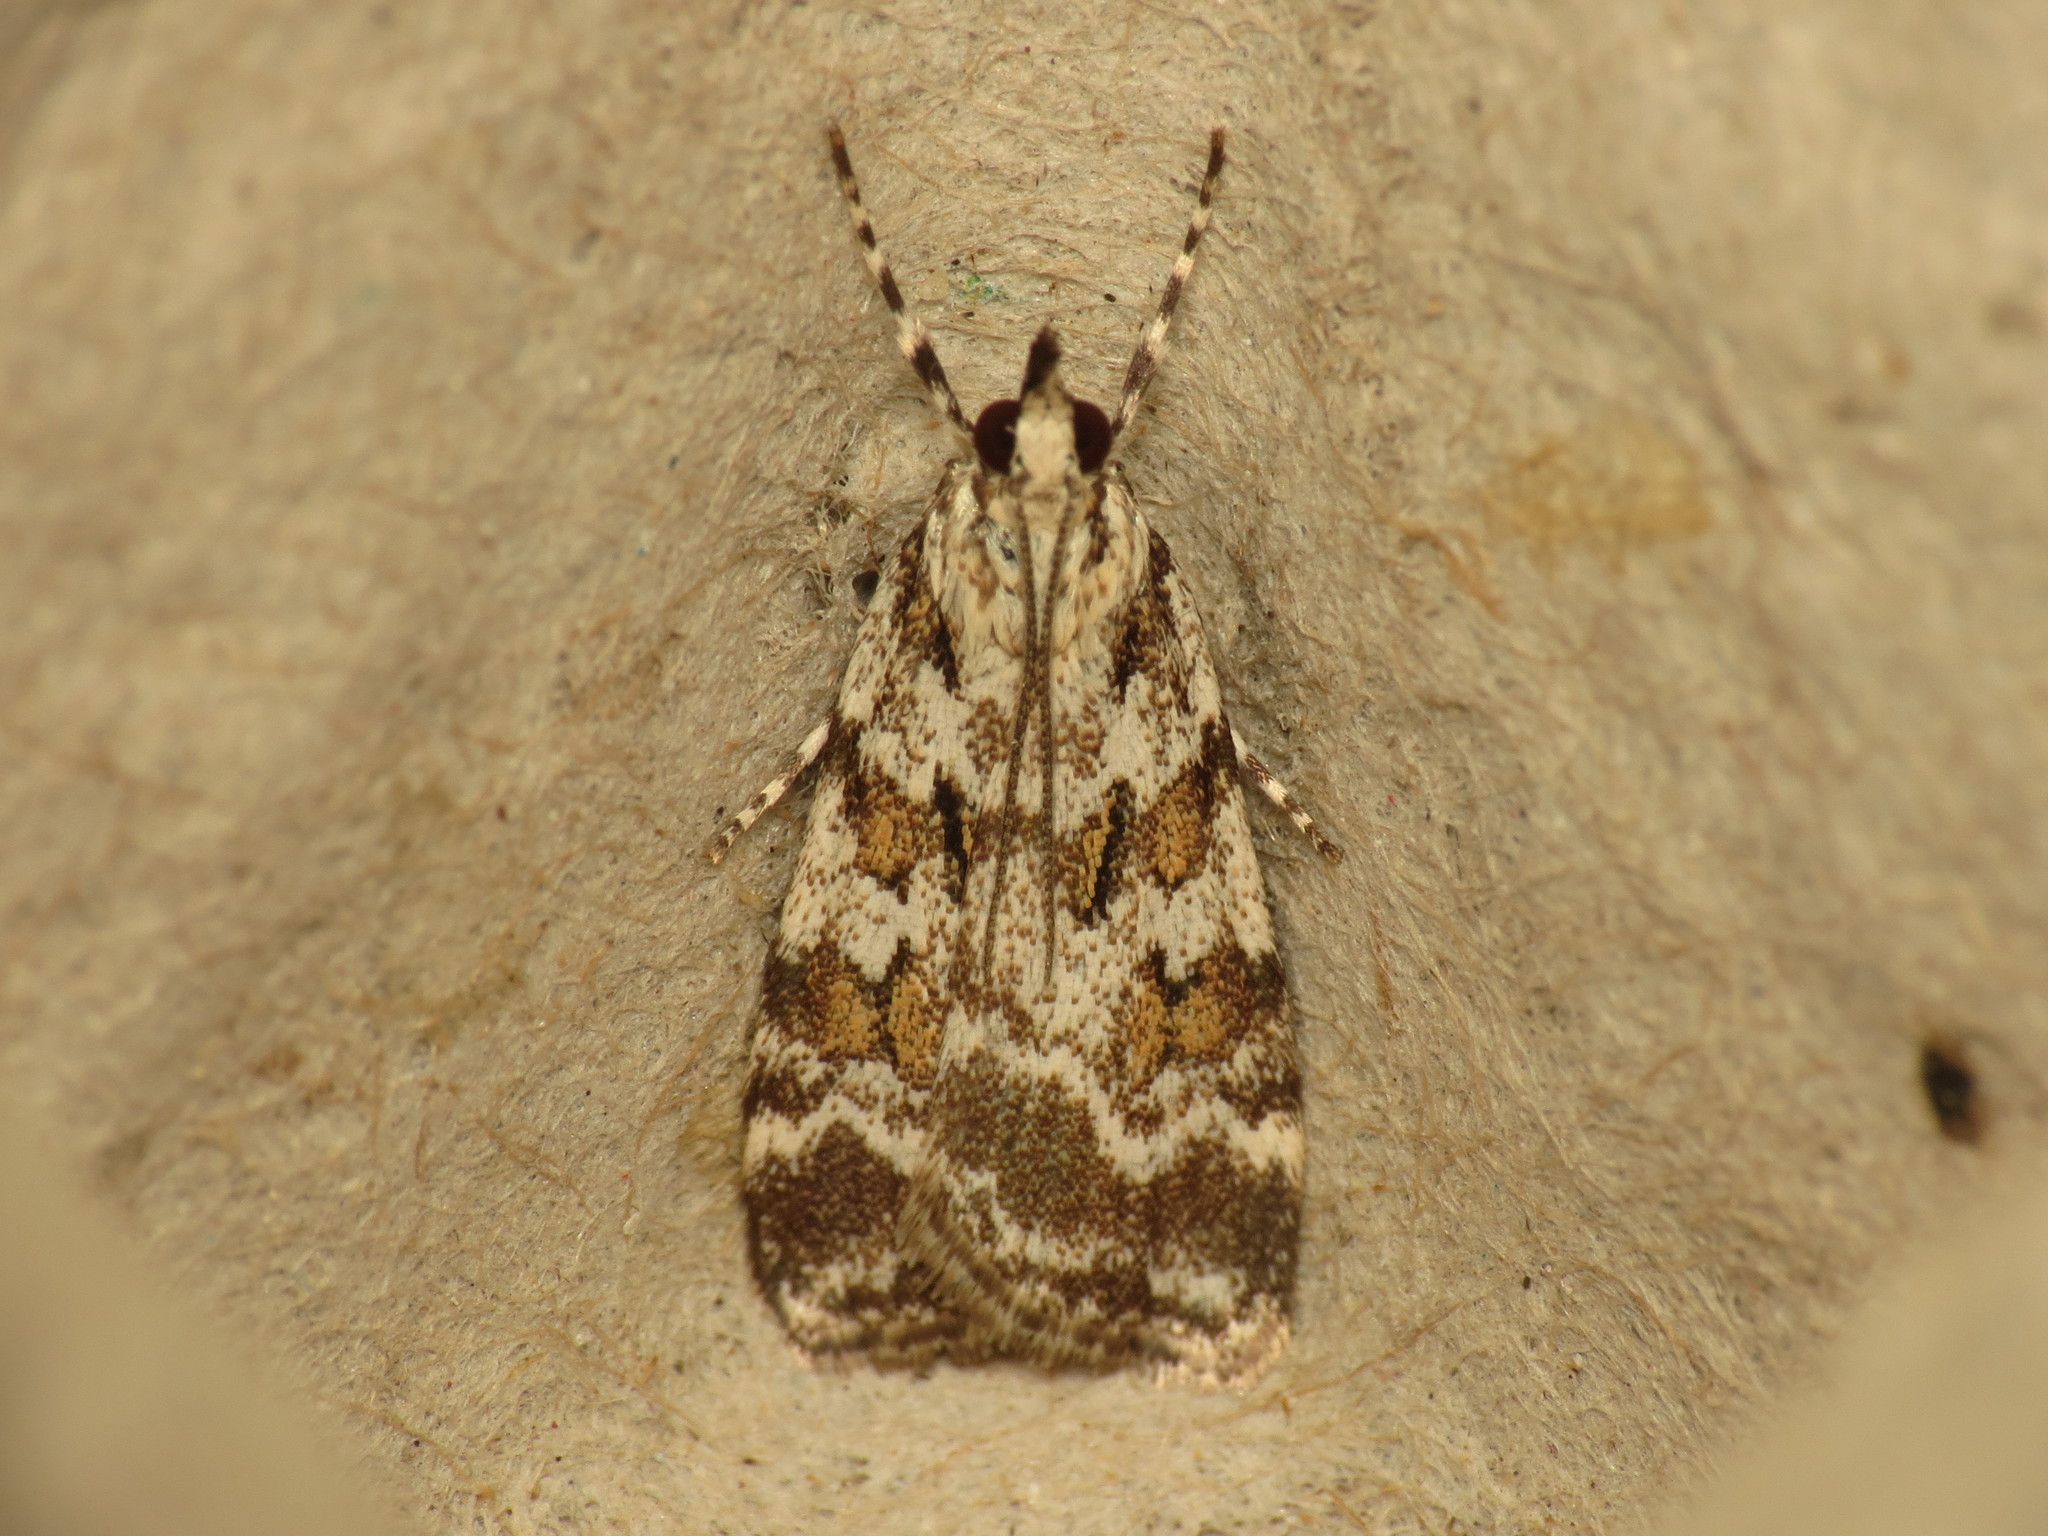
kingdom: Animalia
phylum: Arthropoda
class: Insecta
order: Lepidoptera
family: Crambidae
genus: Scoparia
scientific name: Scoparia pyralella
